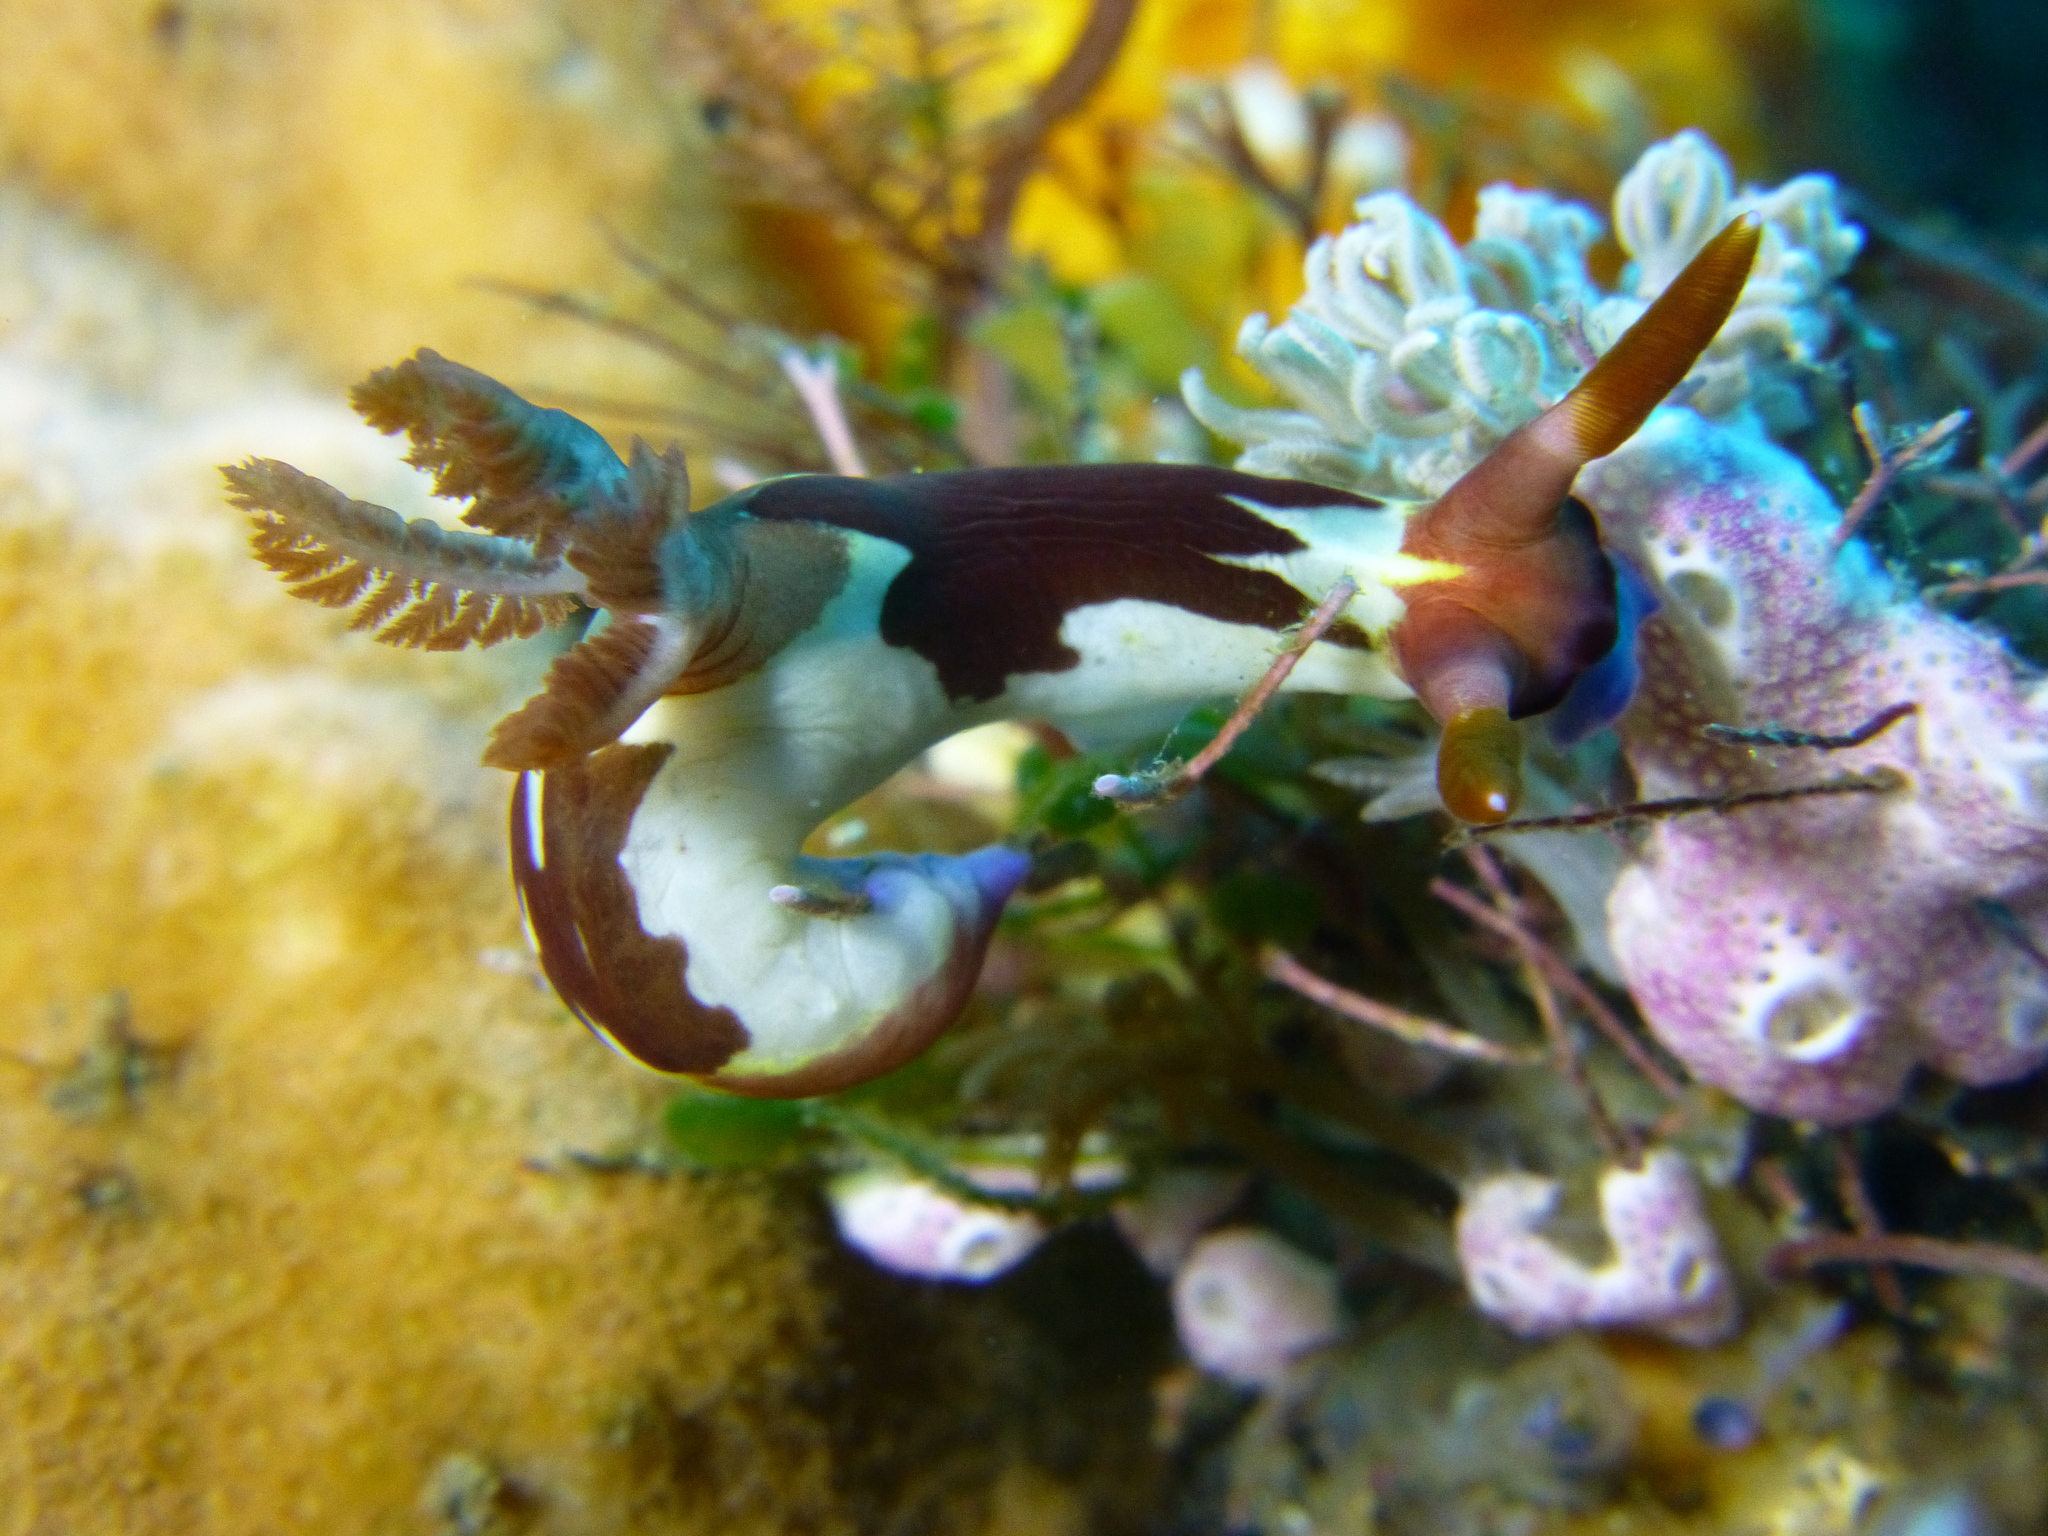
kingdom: Animalia
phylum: Mollusca
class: Gastropoda
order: Nudibranchia
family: Polyceridae
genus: Nembrotha
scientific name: Nembrotha chamberlaini
